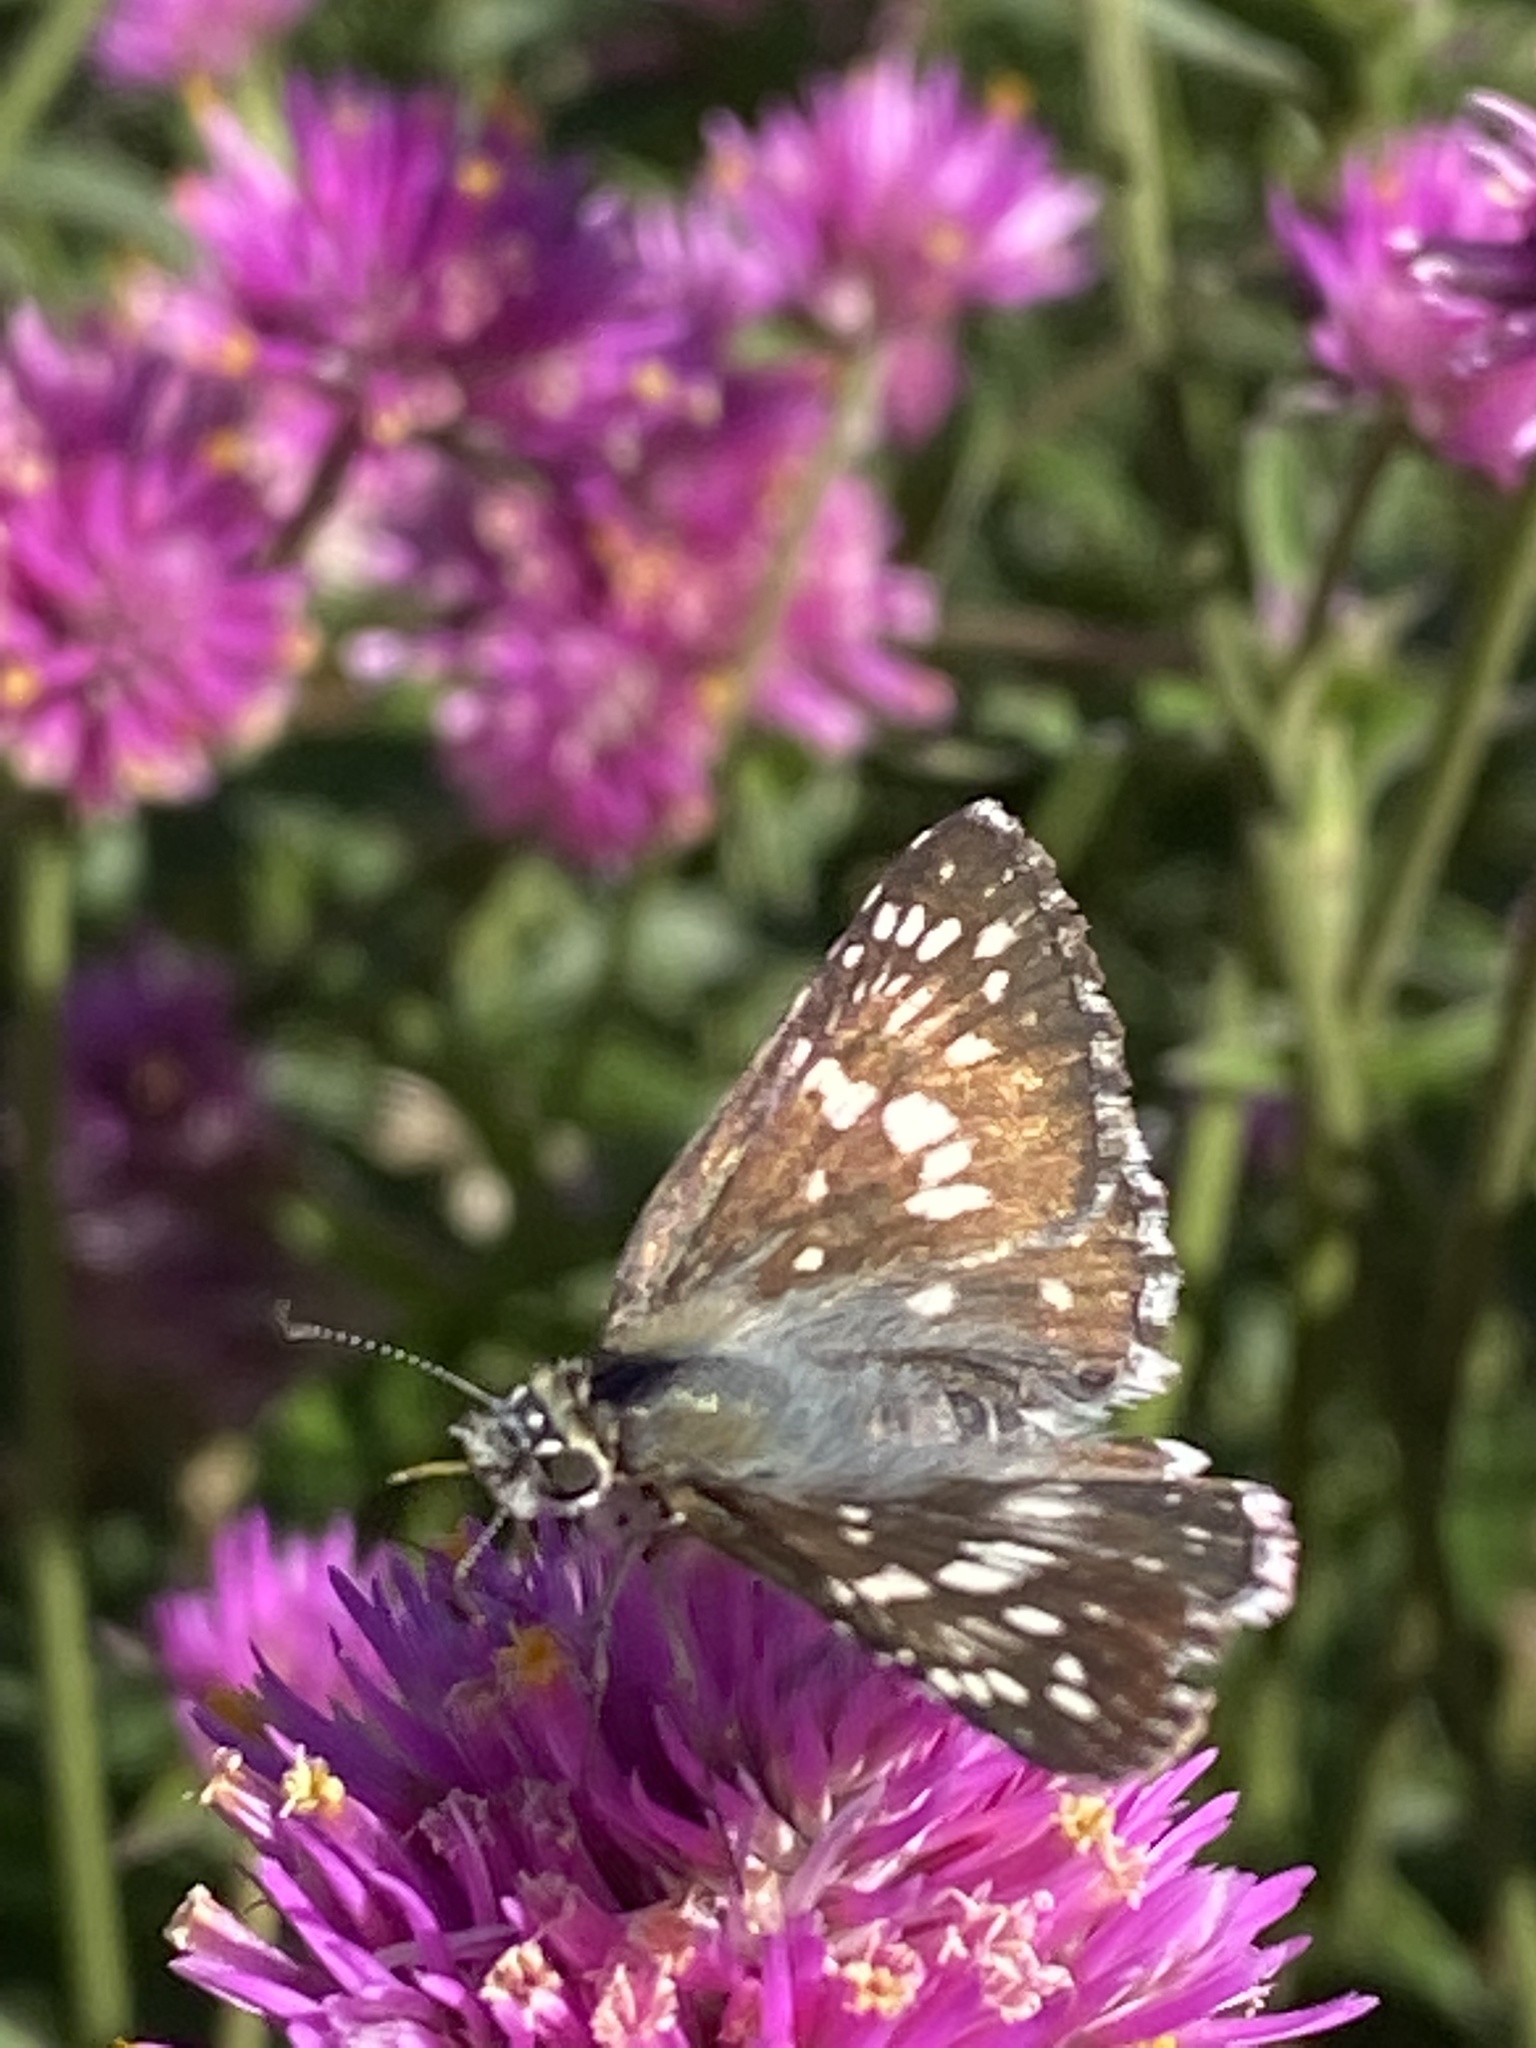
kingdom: Animalia
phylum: Arthropoda
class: Insecta
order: Lepidoptera
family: Hesperiidae
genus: Burnsius
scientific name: Burnsius communis
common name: Common checkered-skipper
